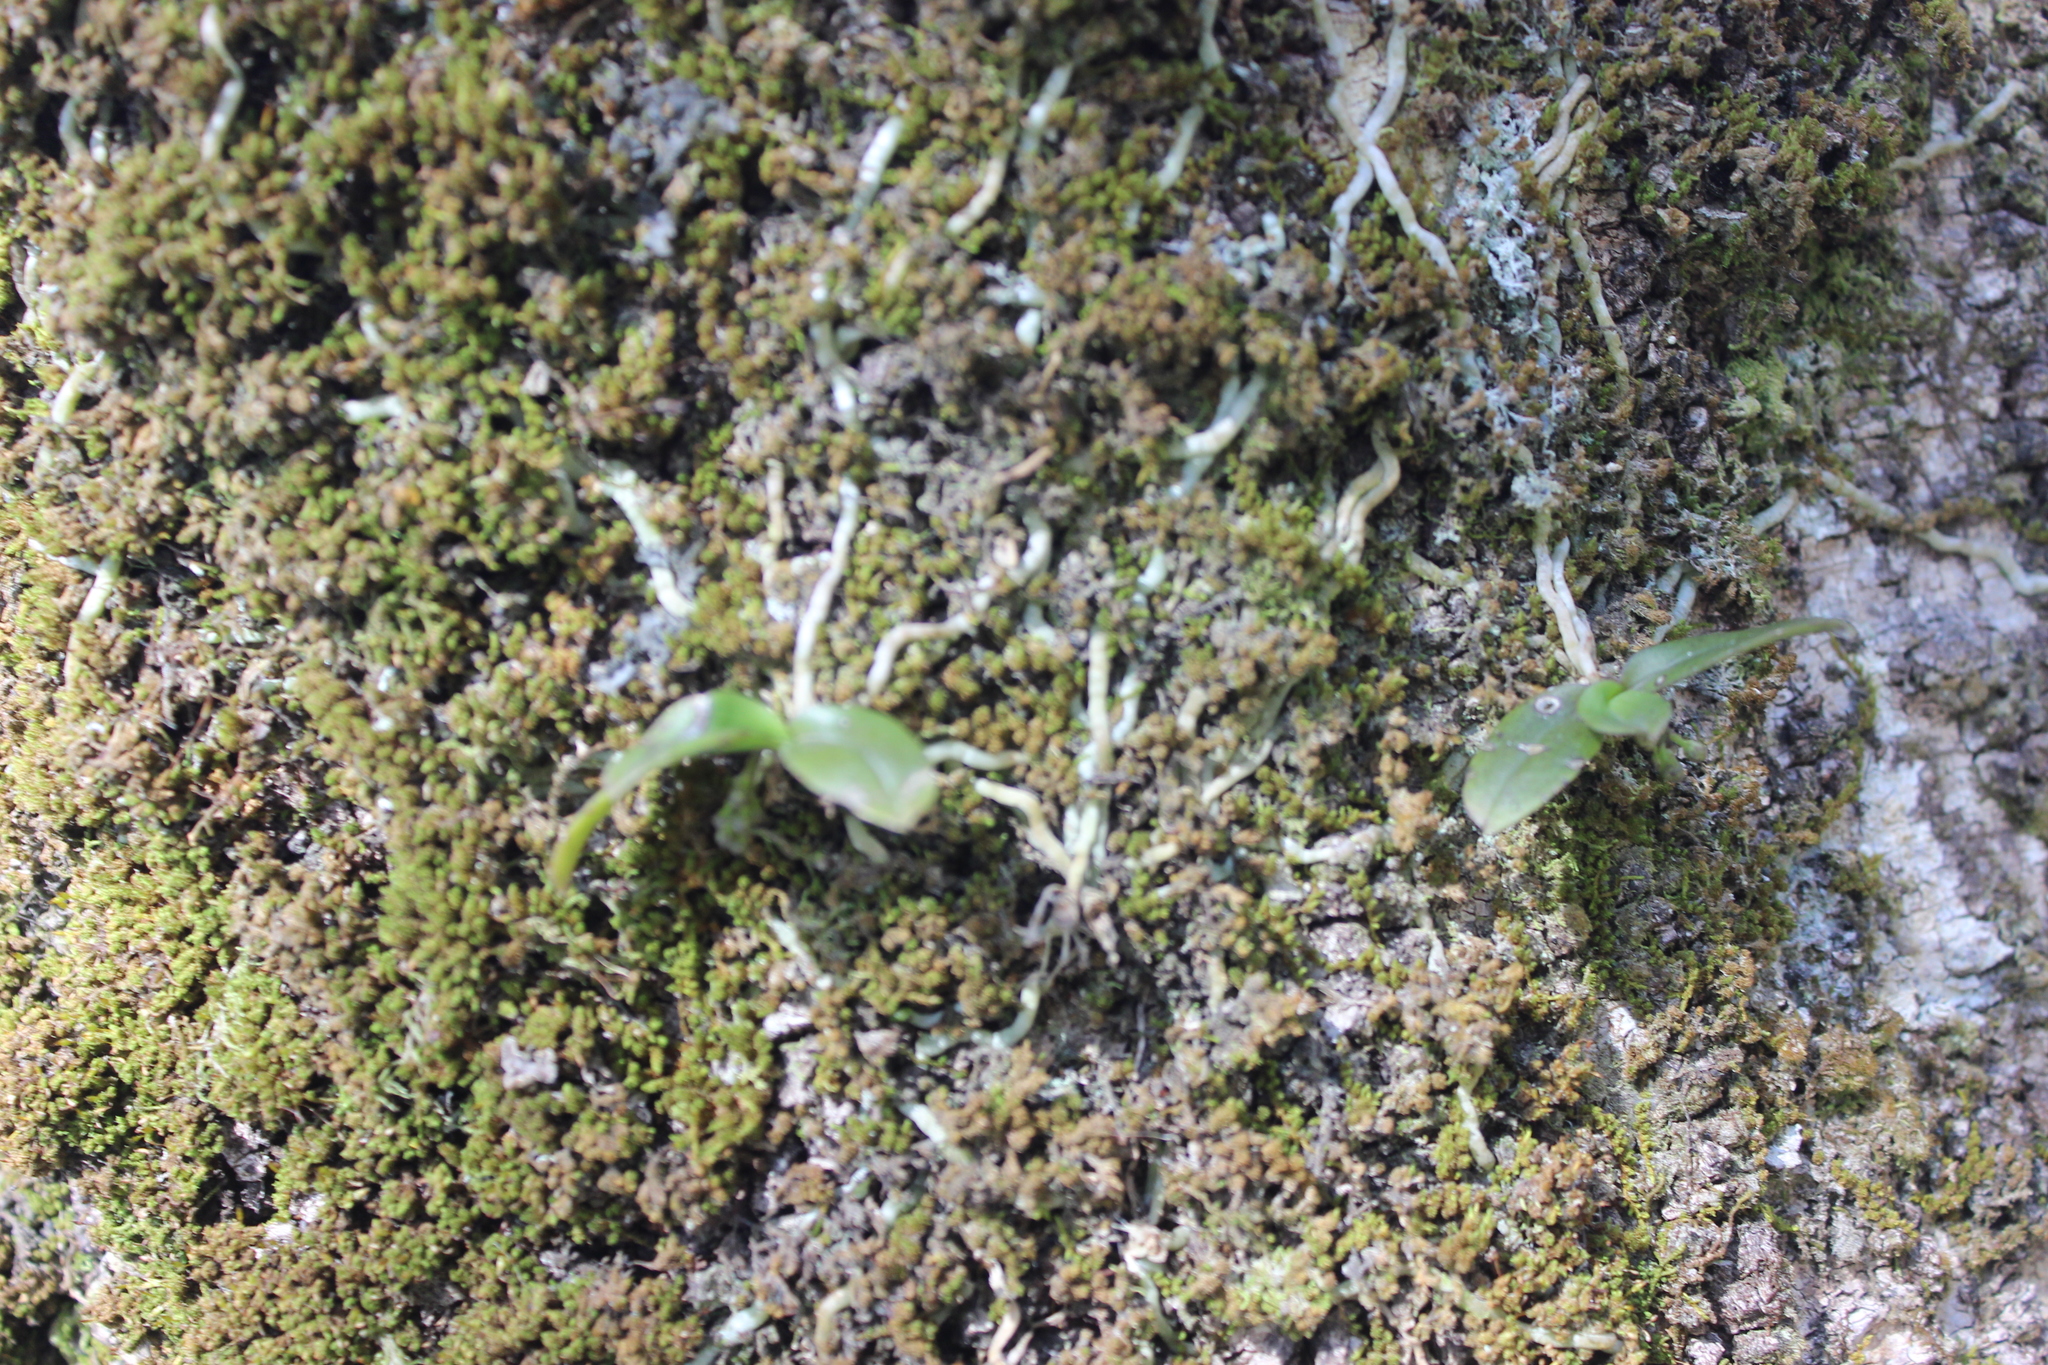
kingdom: Plantae
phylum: Tracheophyta
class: Liliopsida
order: Asparagales
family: Orchidaceae
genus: Drymoanthus
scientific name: Drymoanthus adversus
